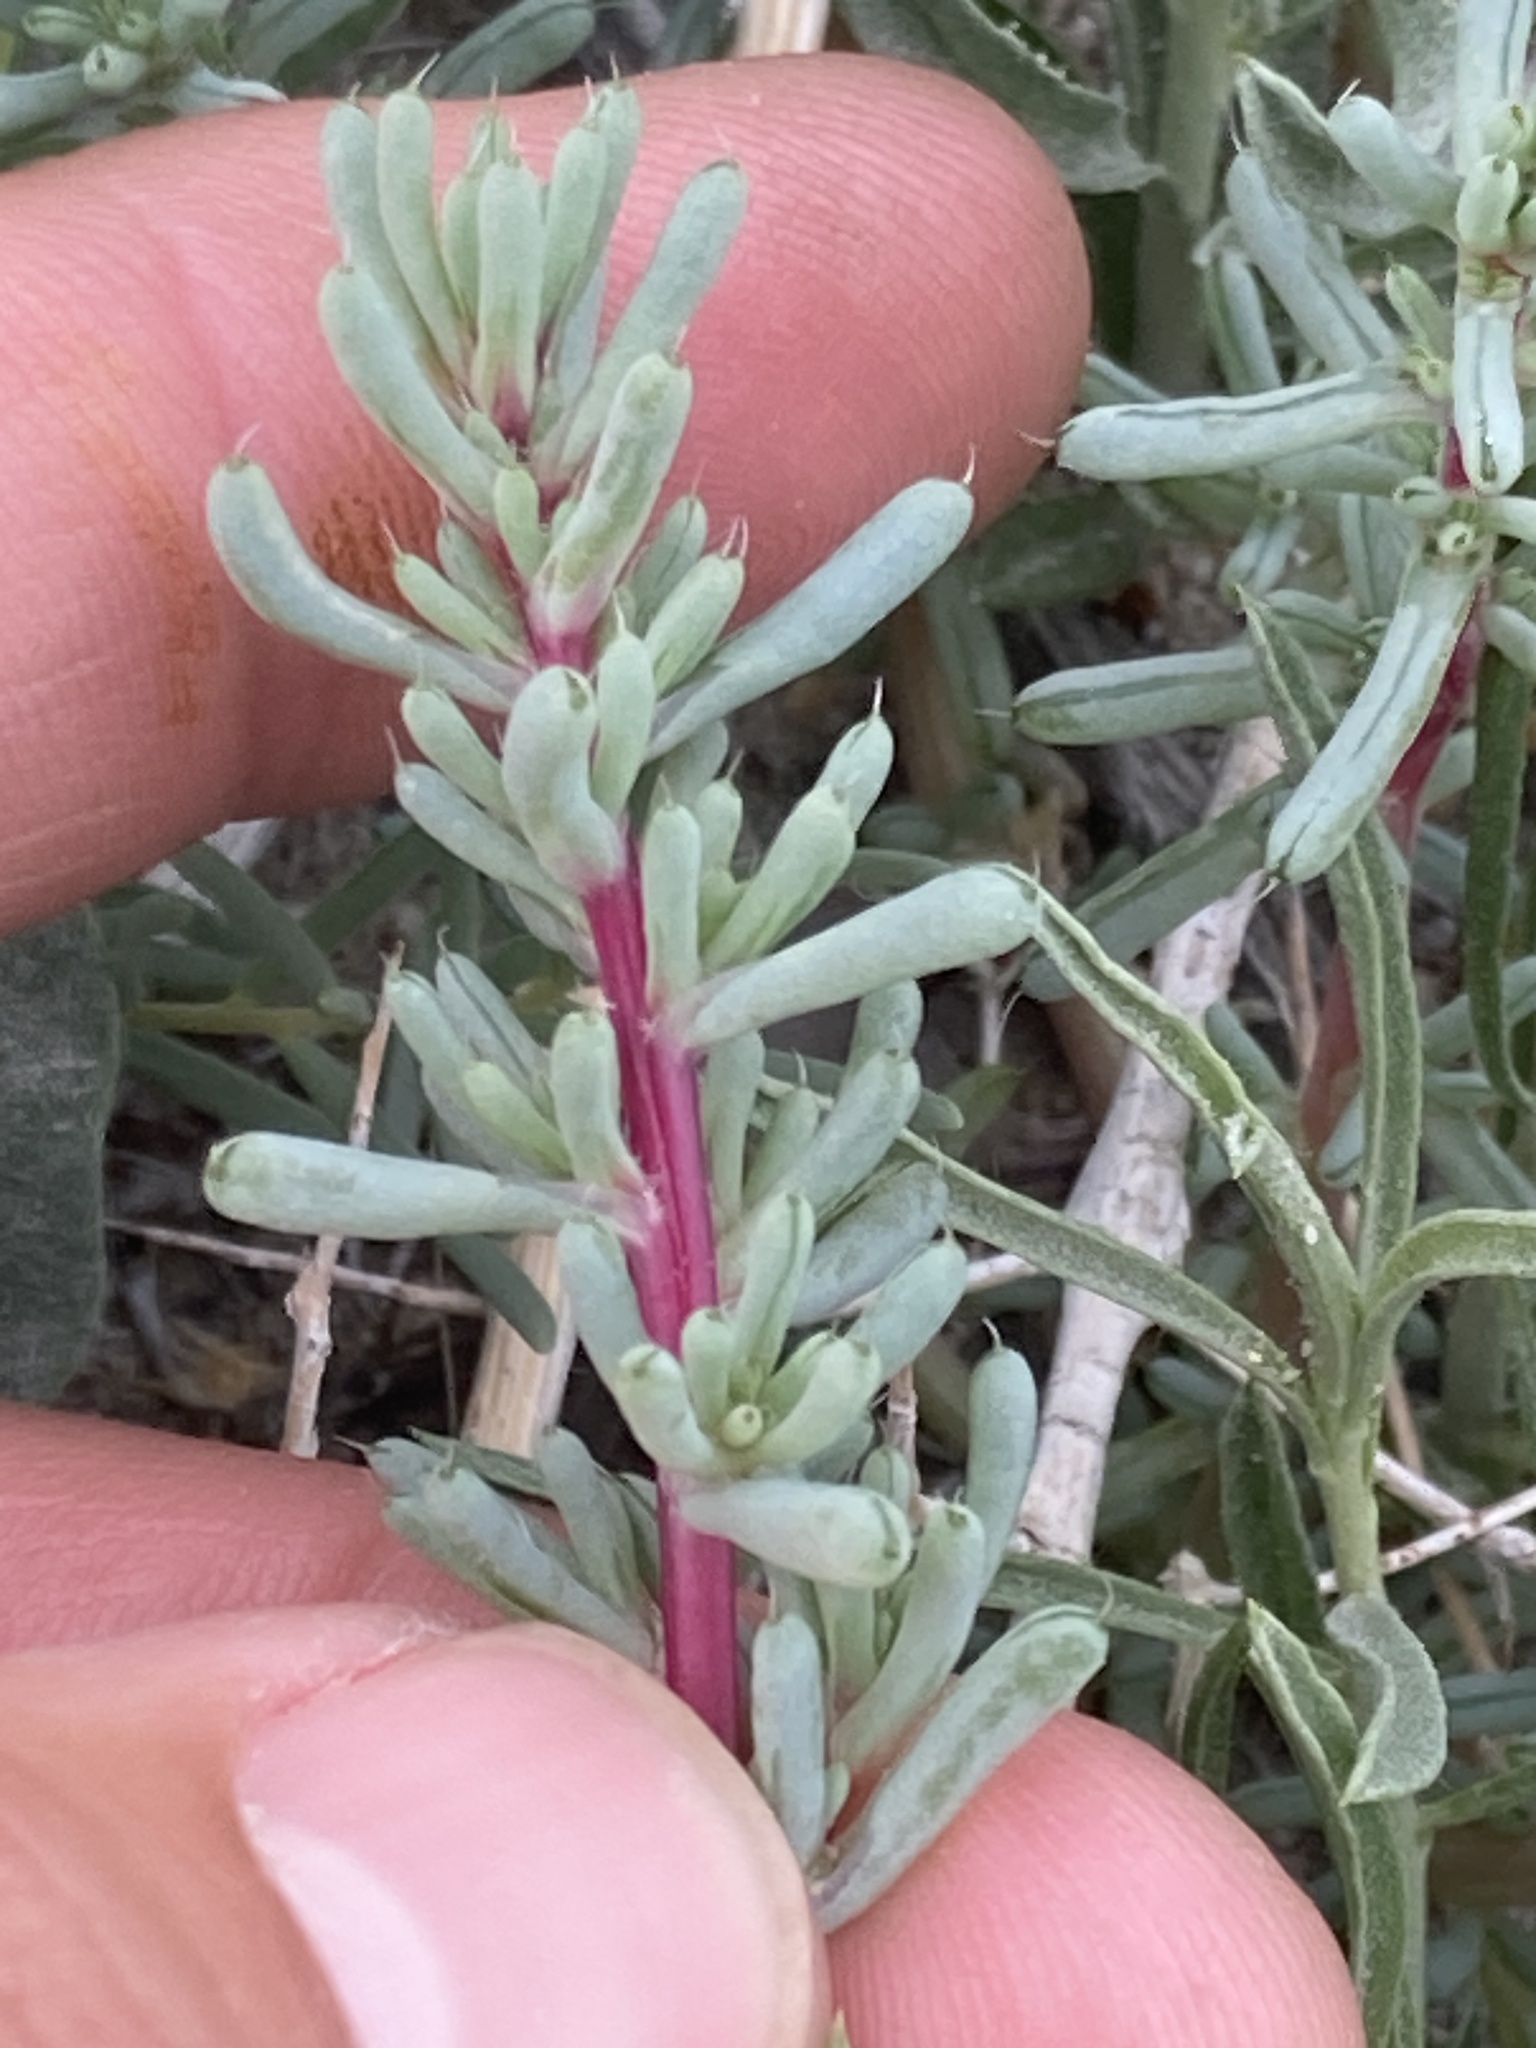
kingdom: Plantae
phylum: Tracheophyta
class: Magnoliopsida
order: Caryophyllales
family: Amaranthaceae
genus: Halogeton
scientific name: Halogeton glomeratus
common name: Saltlover
